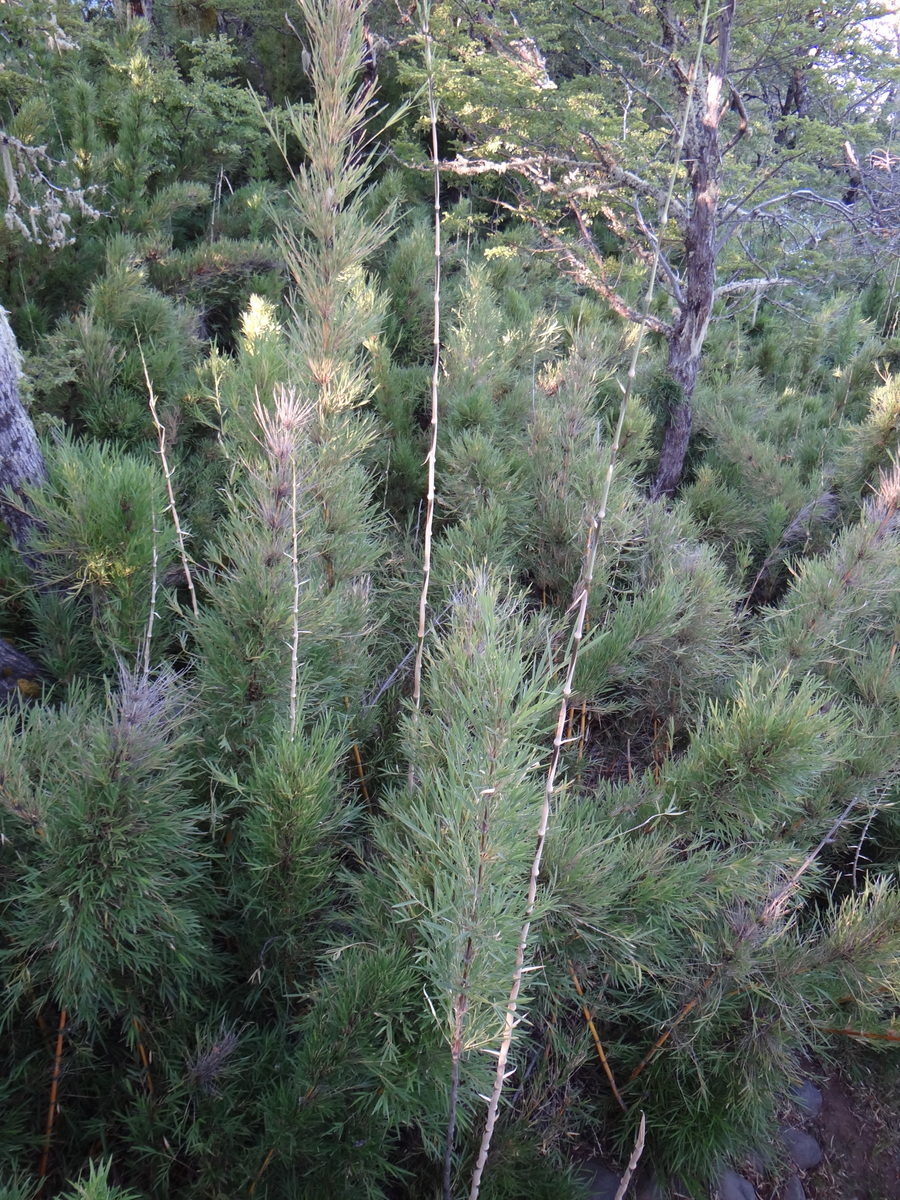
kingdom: Plantae
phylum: Tracheophyta
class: Liliopsida
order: Poales
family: Poaceae
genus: Chusquea
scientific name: Chusquea culeou
